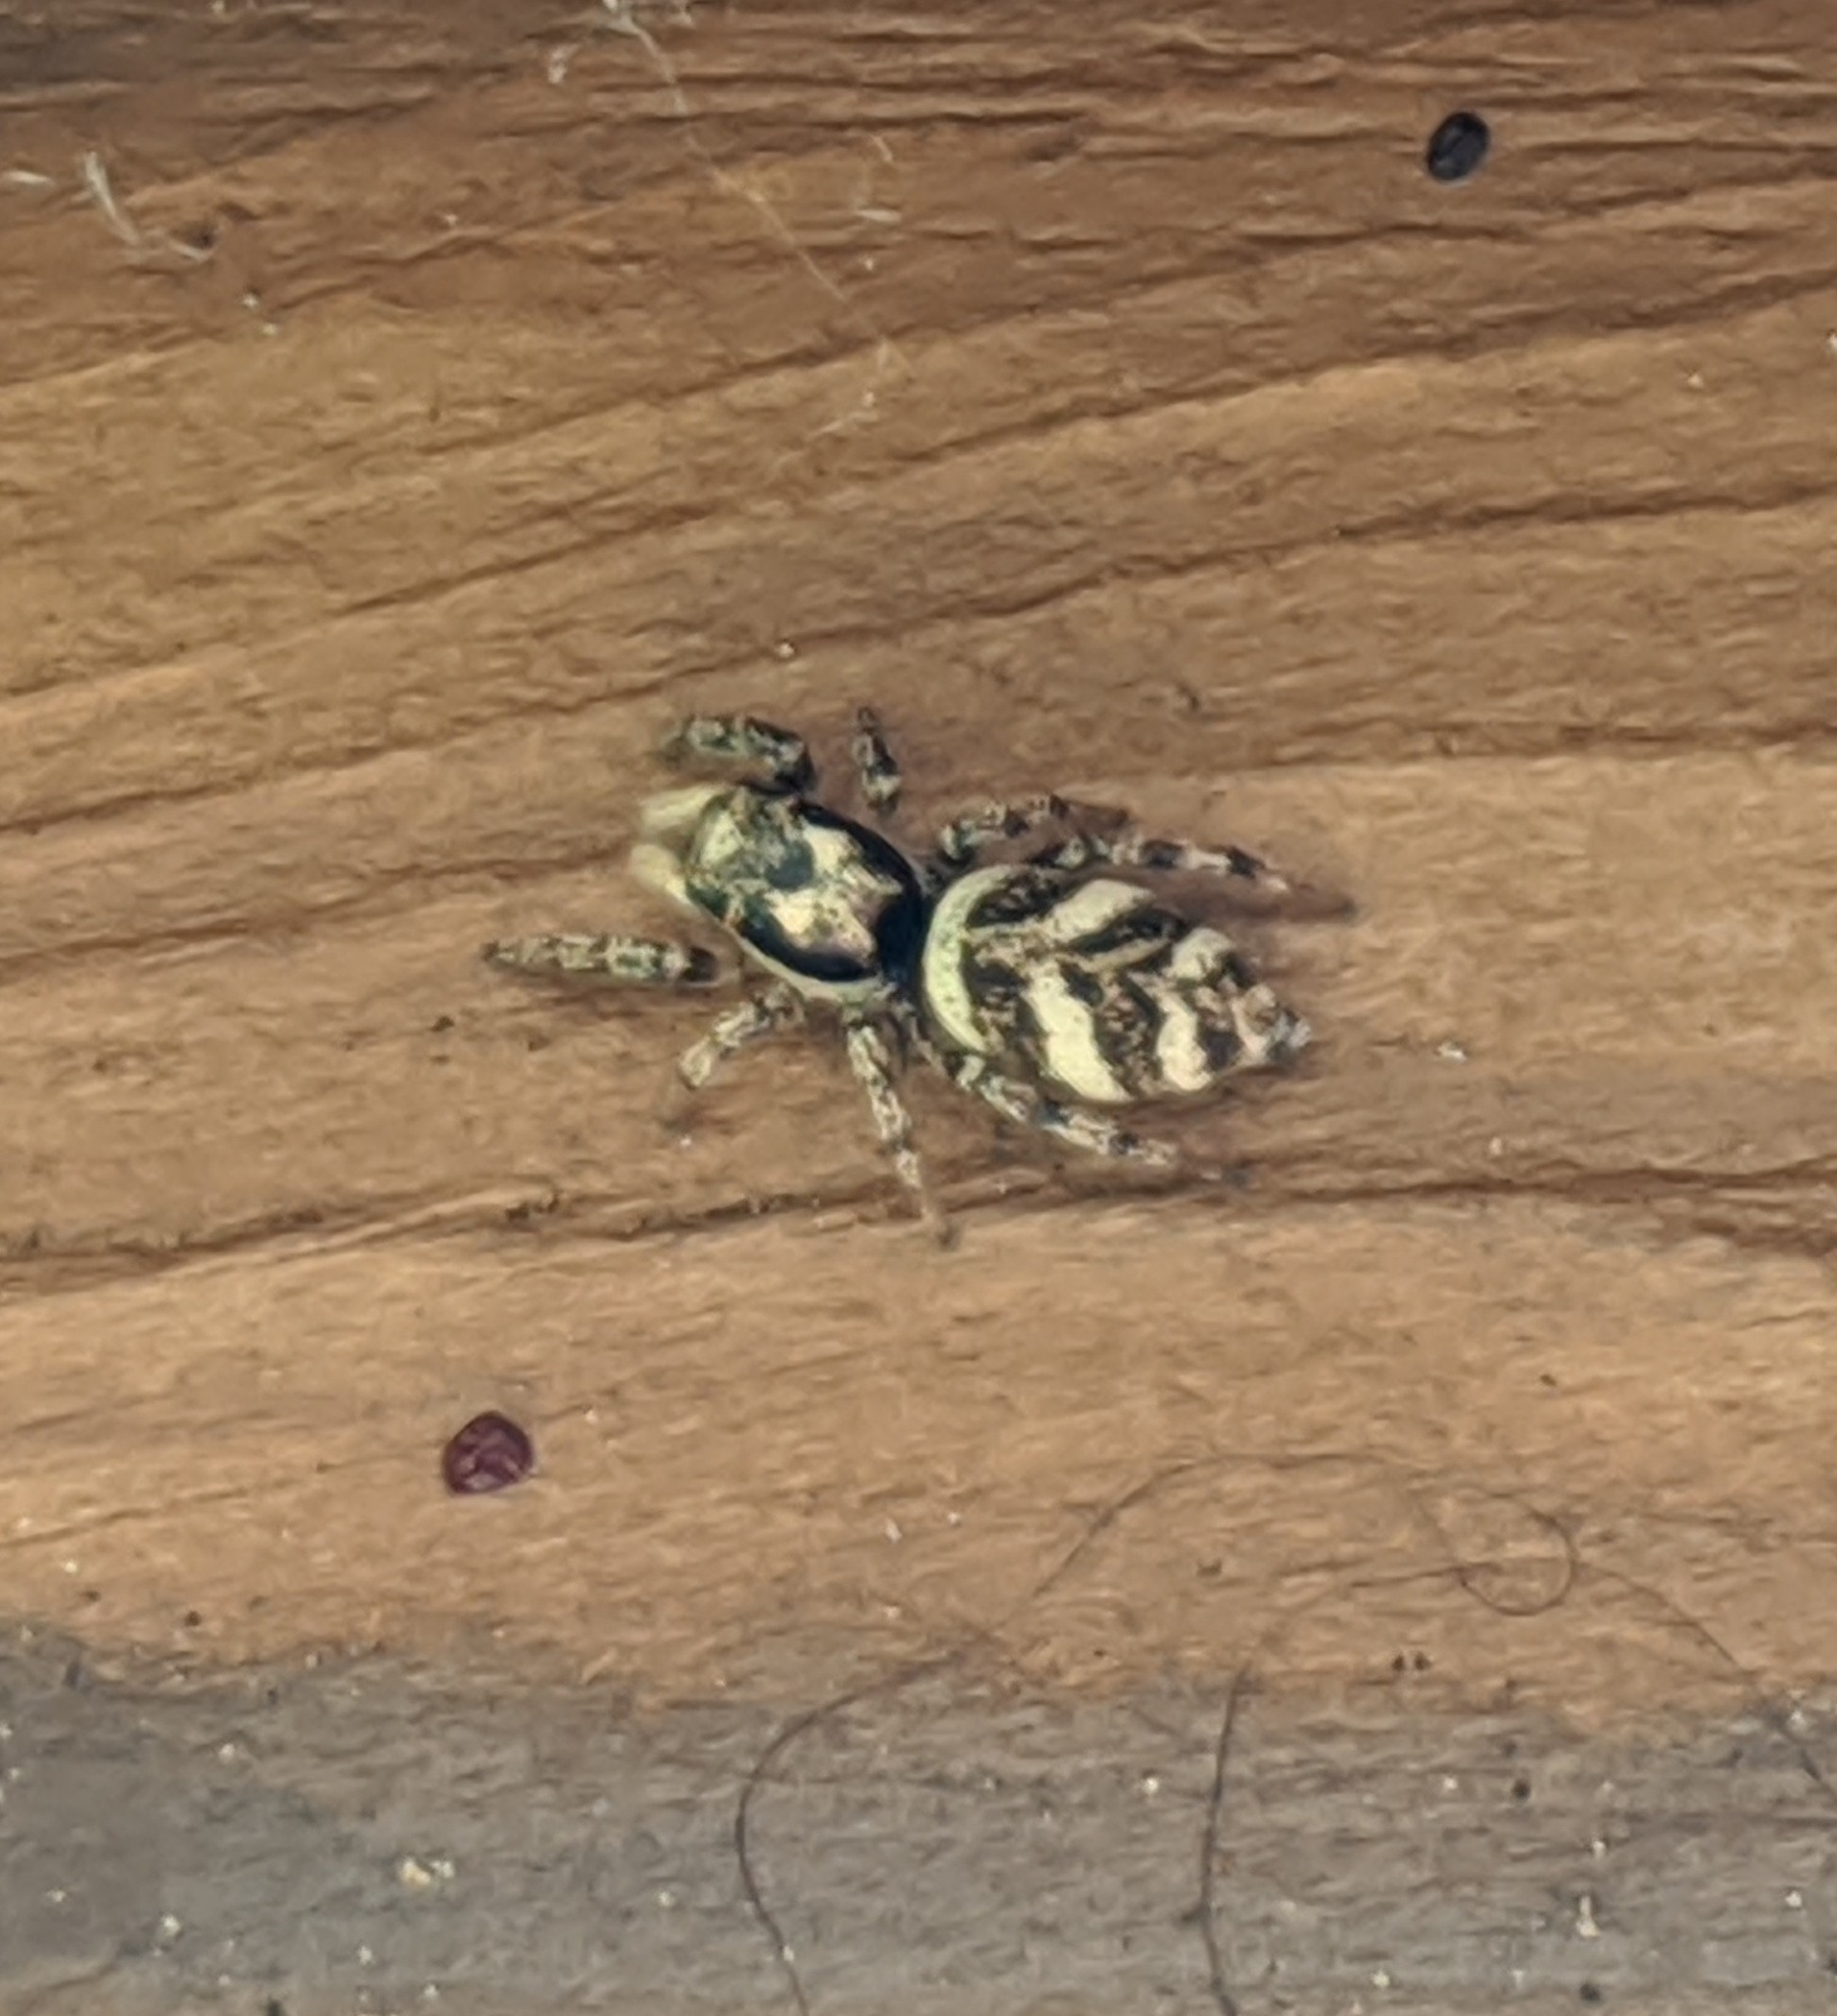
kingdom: Animalia
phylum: Arthropoda
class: Arachnida
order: Araneae
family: Salticidae
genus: Salticus
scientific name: Salticus scenicus
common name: Zebra jumper
